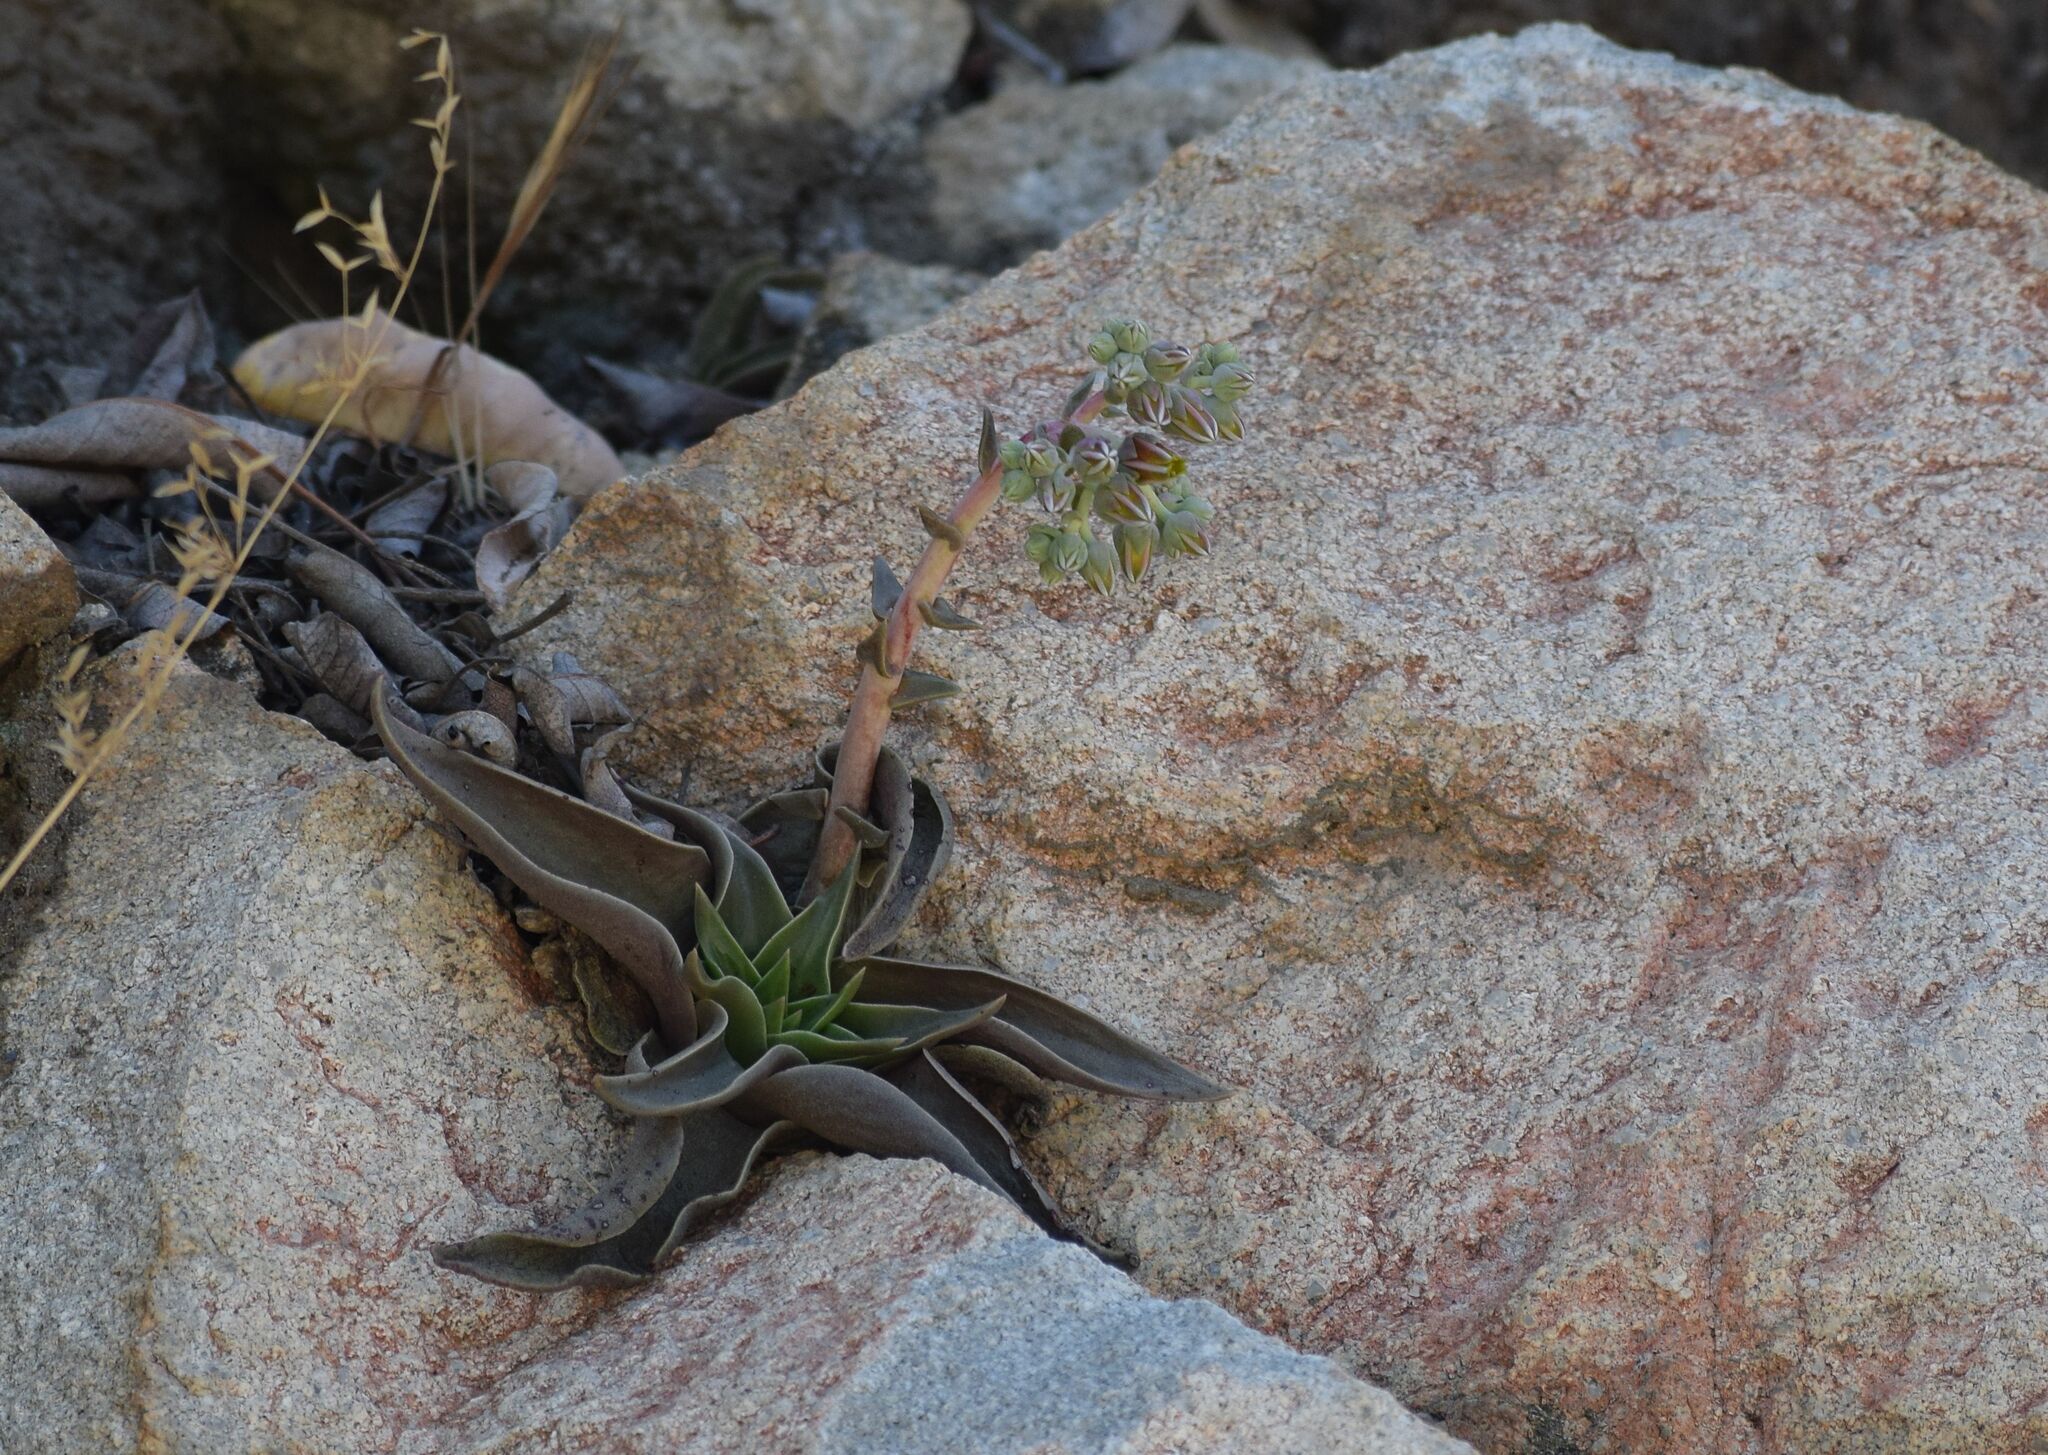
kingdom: Plantae
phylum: Tracheophyta
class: Magnoliopsida
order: Saxifragales
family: Crassulaceae
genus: Dudleya
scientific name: Dudleya lanceolata
